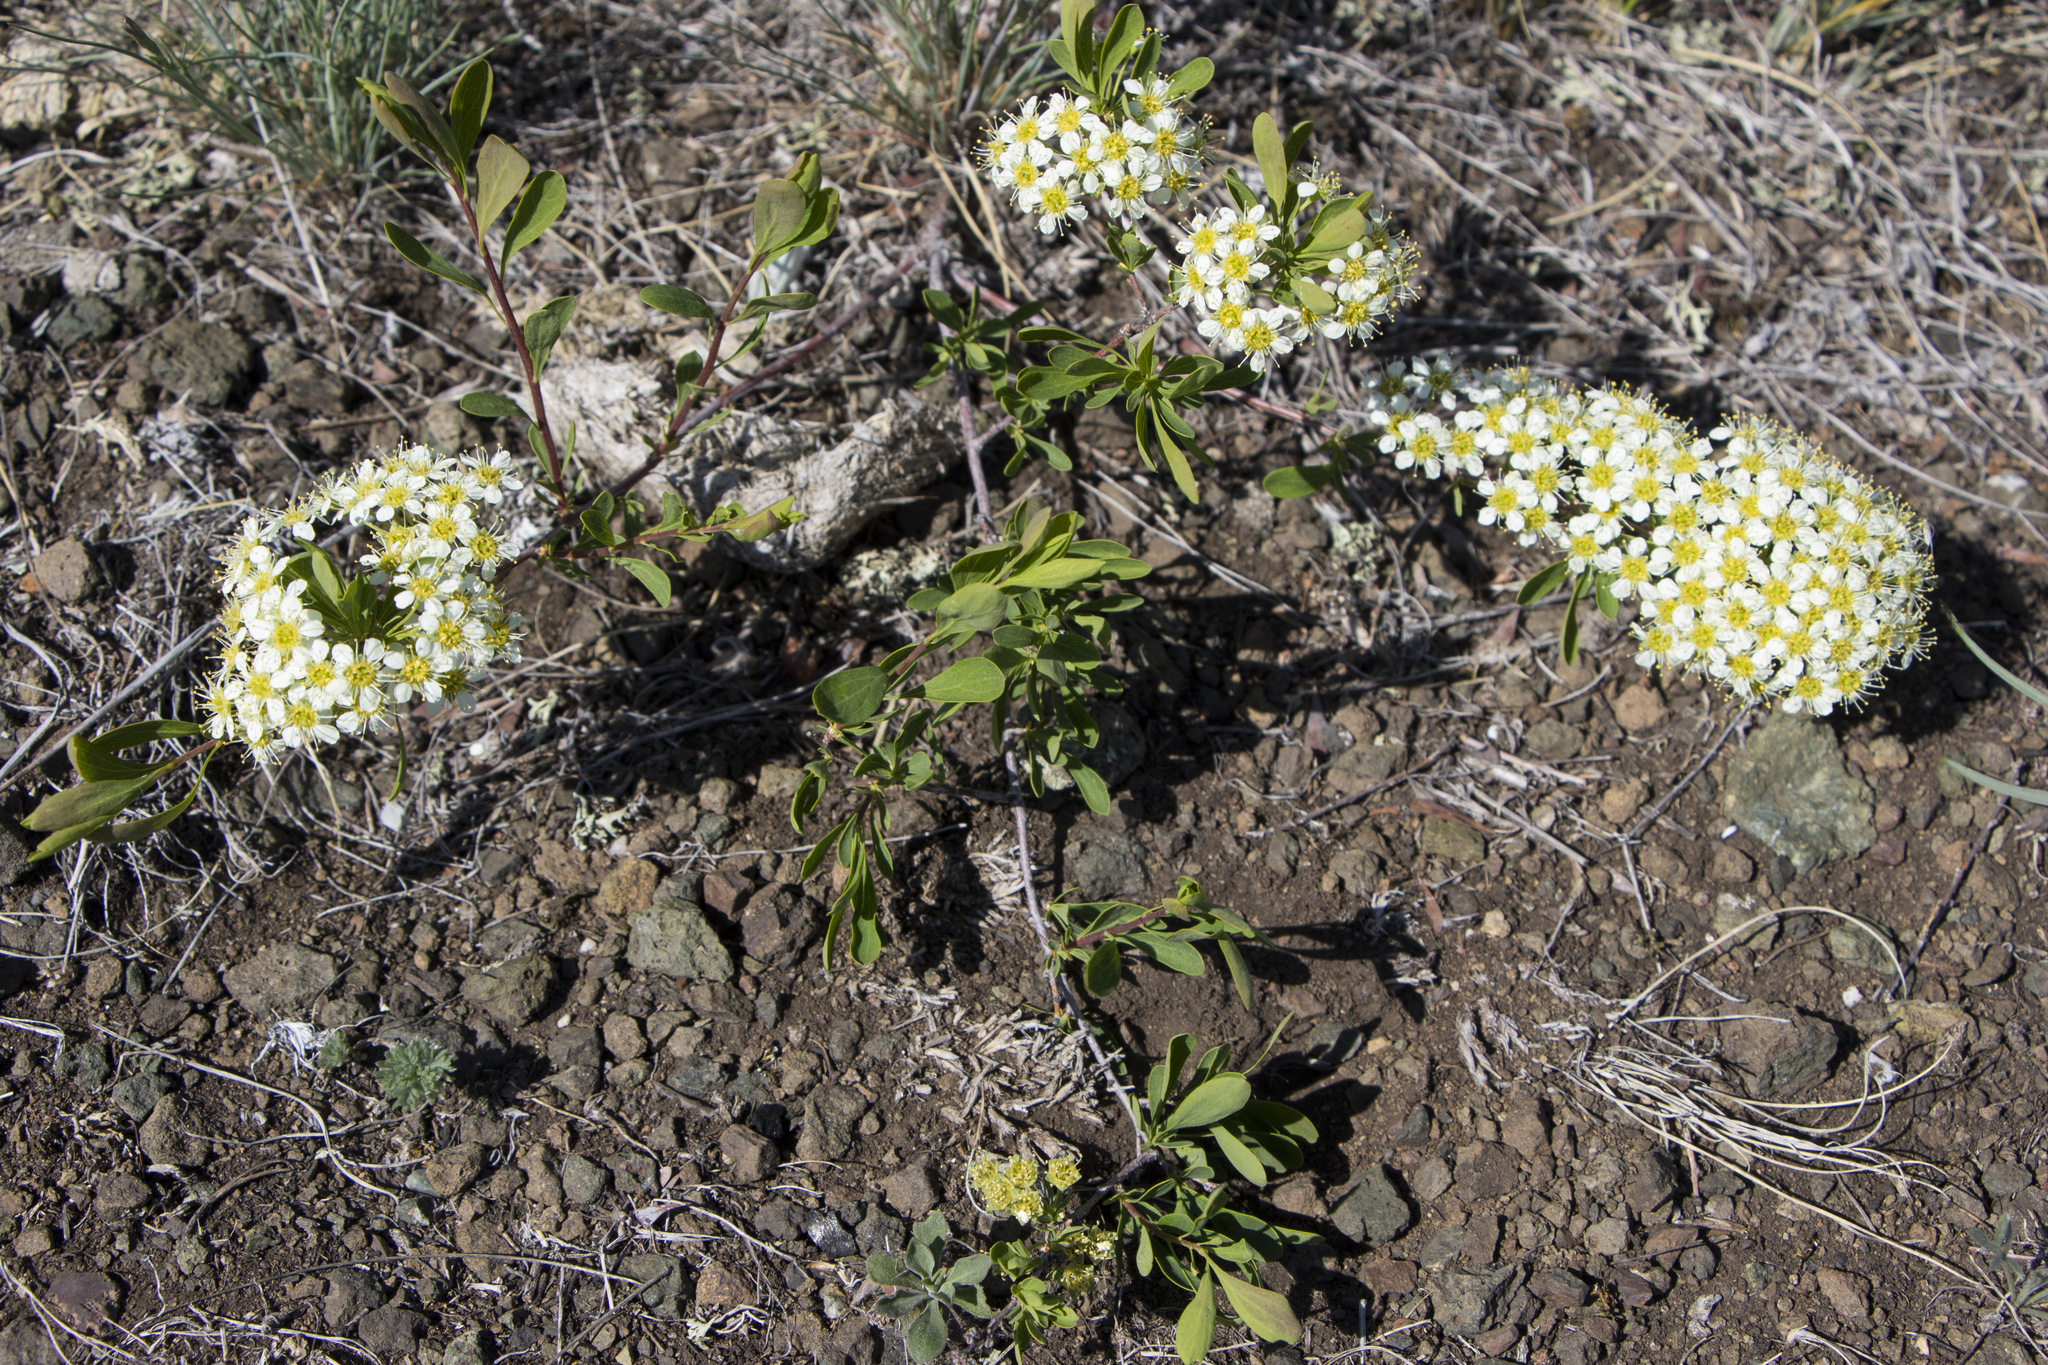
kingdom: Plantae
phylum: Tracheophyta
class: Magnoliopsida
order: Rosales
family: Rosaceae
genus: Spiraea
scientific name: Spiraea hypericifolia
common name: Iberian spirea
